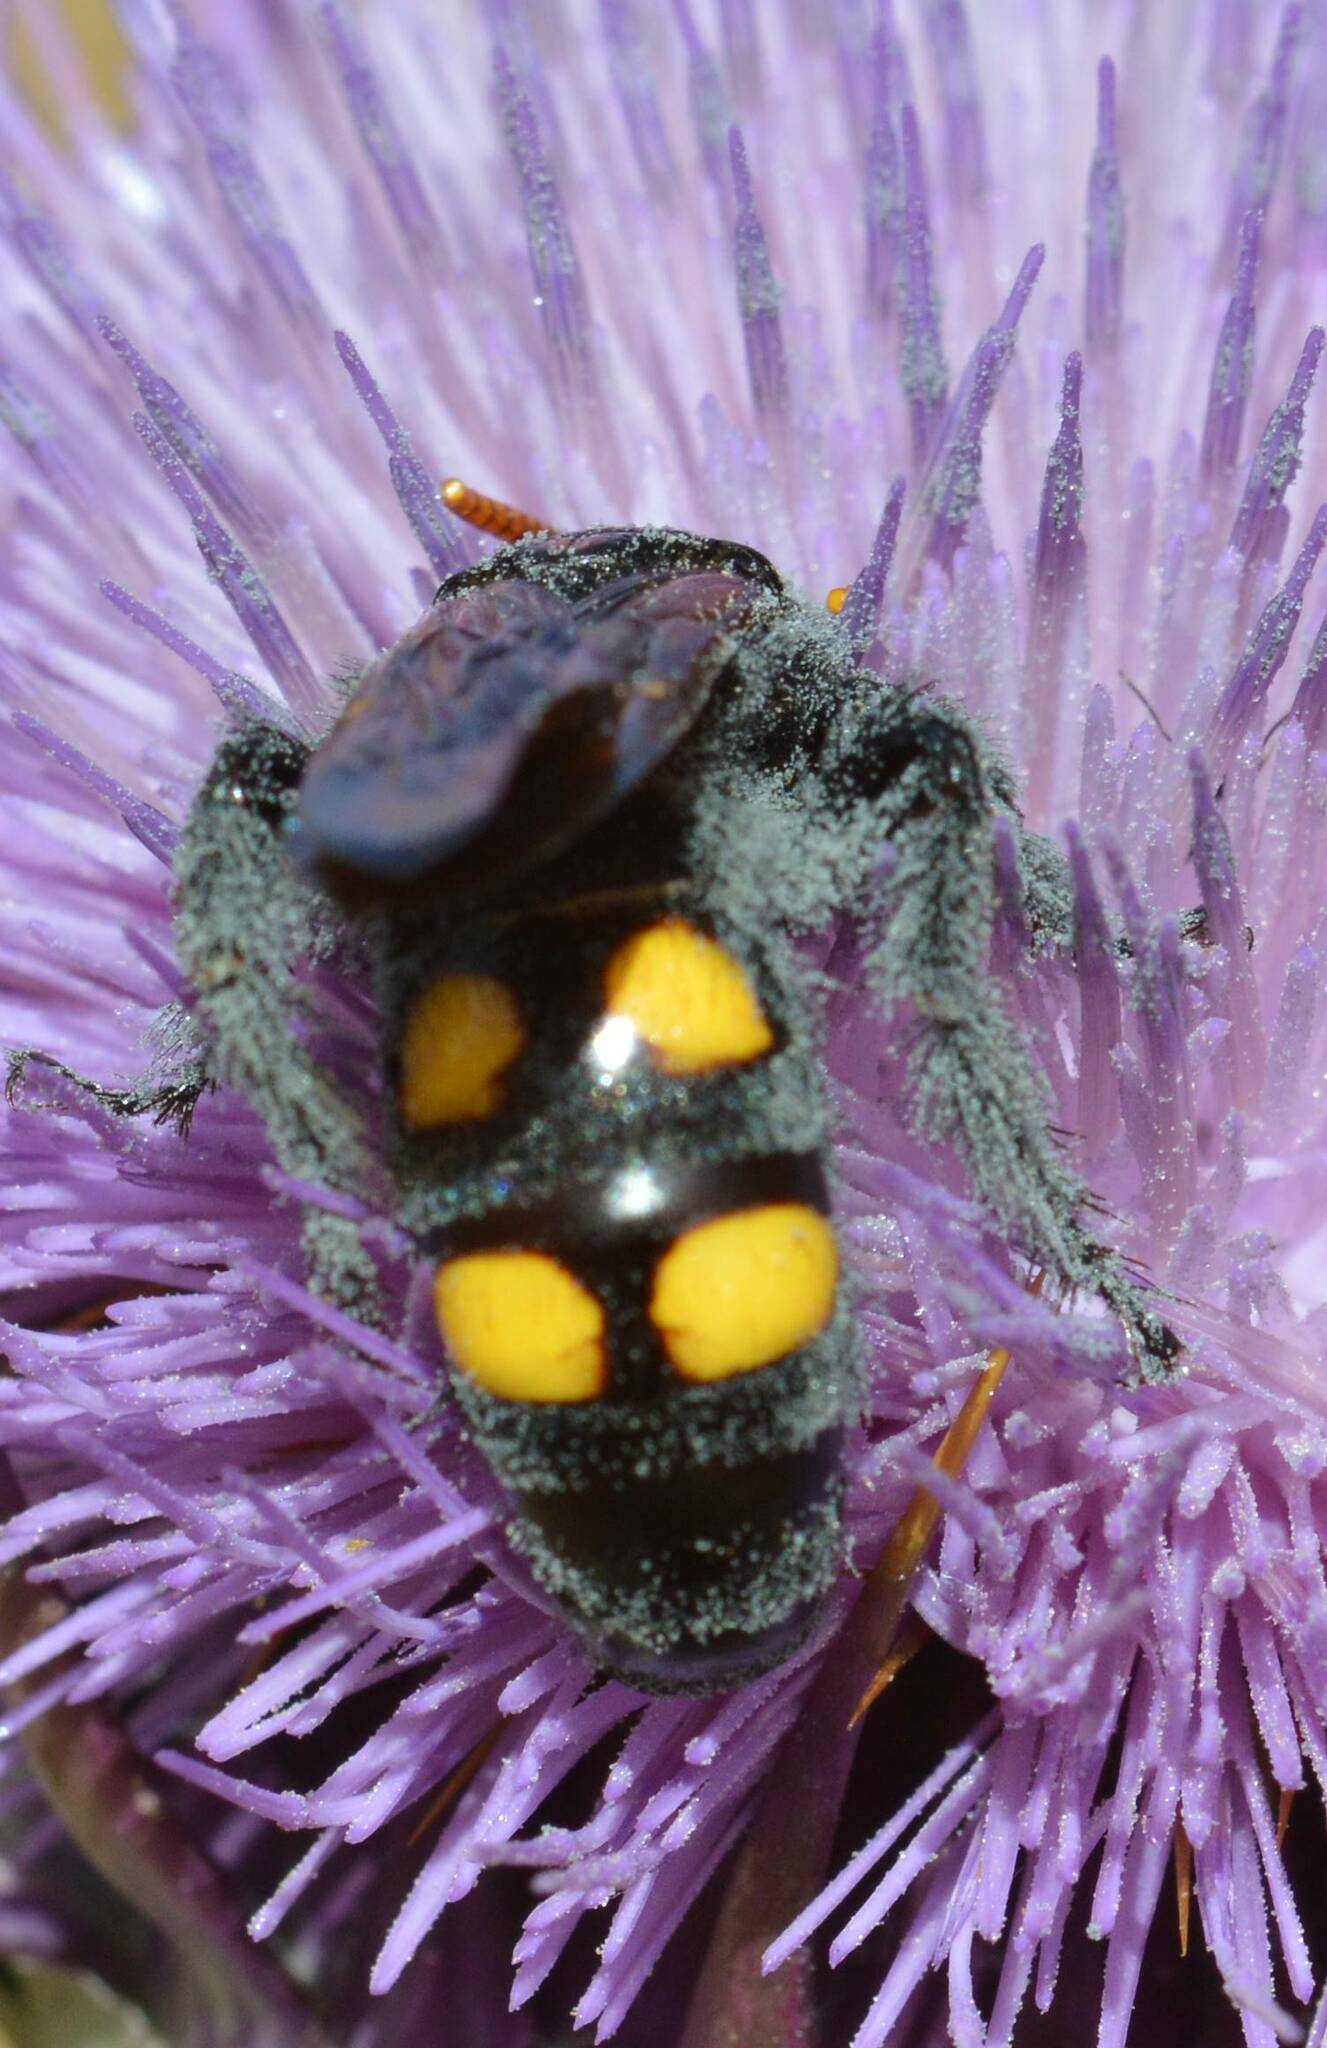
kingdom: Animalia
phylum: Arthropoda
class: Insecta
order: Hymenoptera
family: Scoliidae
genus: Megascolia
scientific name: Megascolia bidens
